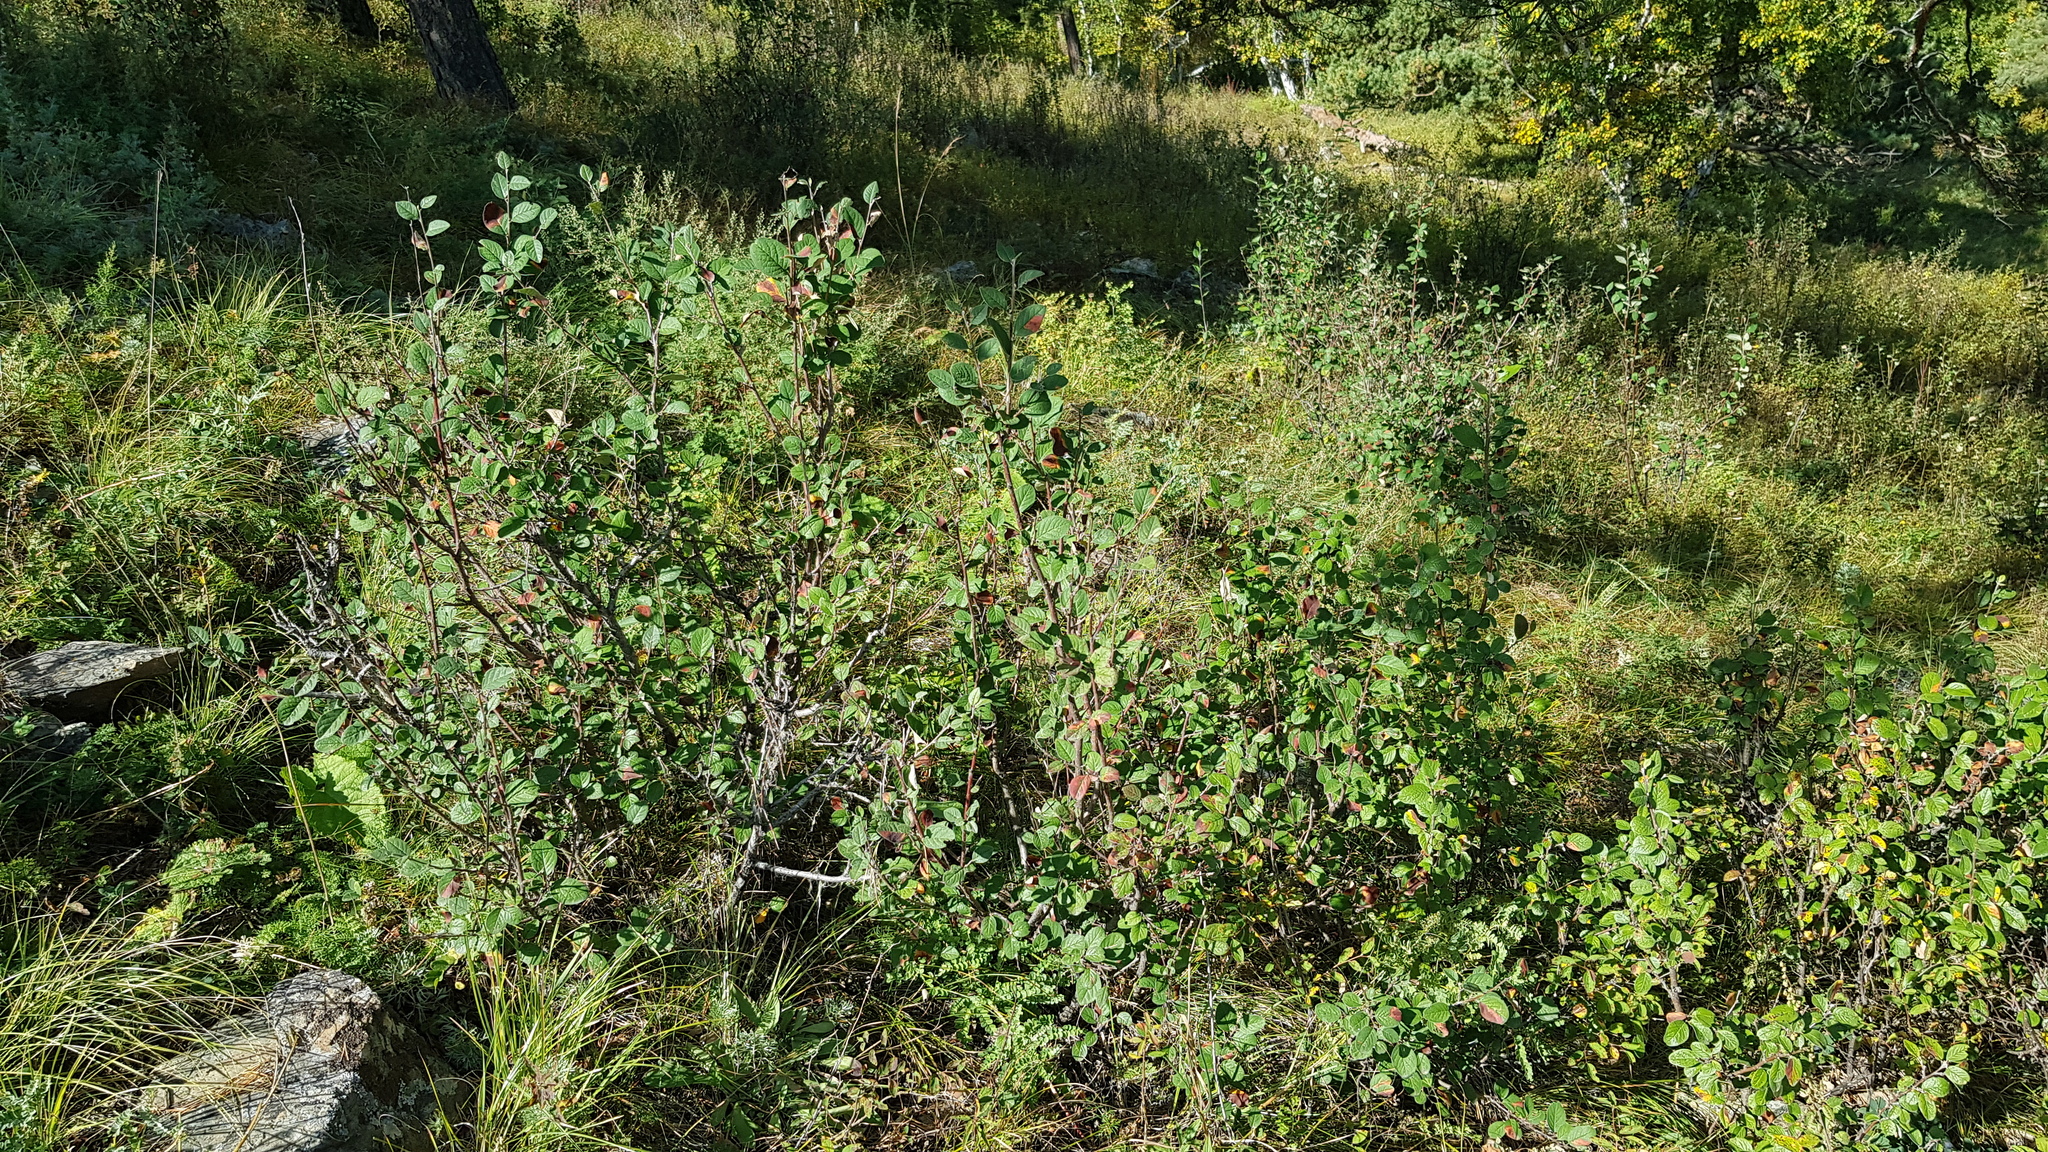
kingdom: Plantae
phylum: Tracheophyta
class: Magnoliopsida
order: Rosales
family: Rosaceae
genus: Cotoneaster
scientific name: Cotoneaster melanocarpus
